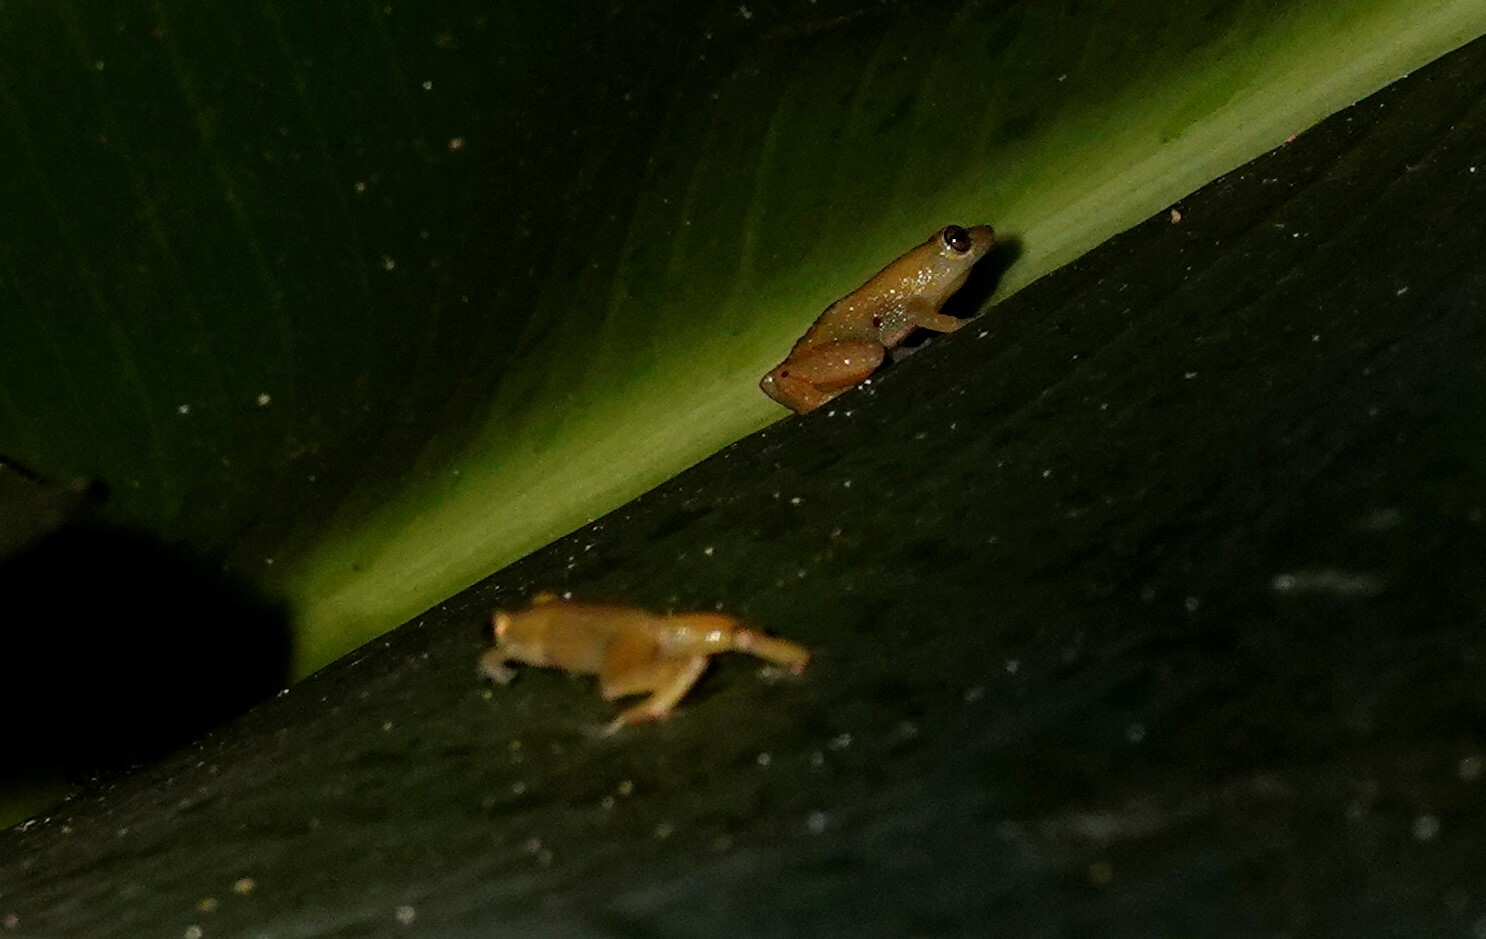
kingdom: Animalia
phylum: Chordata
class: Amphibia
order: Anura
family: Eleutherodactylidae
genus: Diasporus
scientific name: Diasporus diastema
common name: Caretta robber frog
